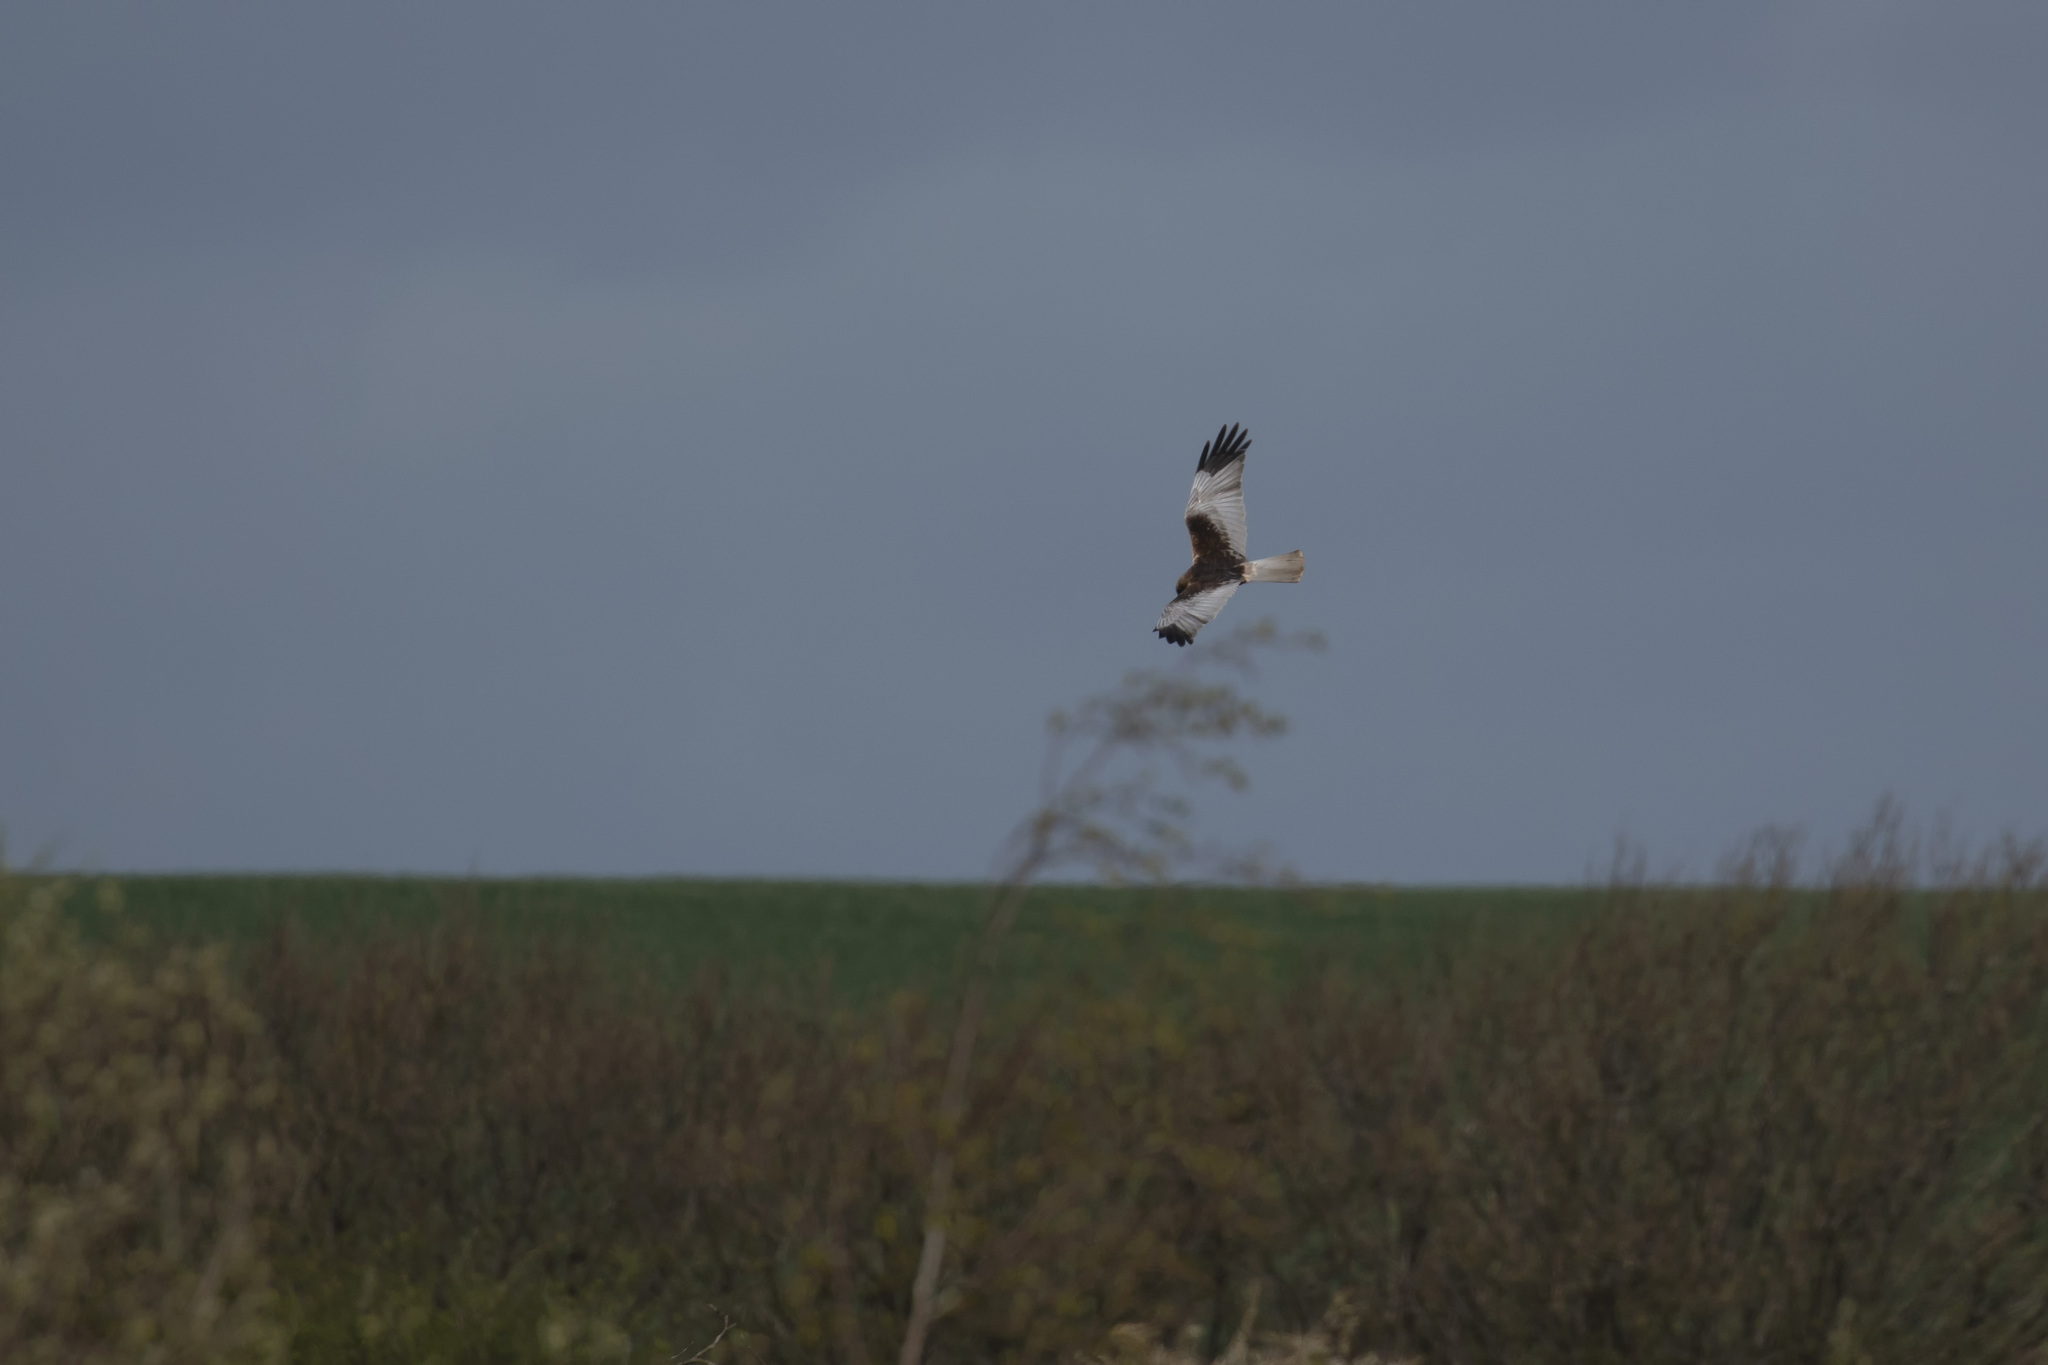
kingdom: Animalia
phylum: Chordata
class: Aves
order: Accipitriformes
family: Accipitridae
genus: Circus
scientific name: Circus aeruginosus
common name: Western marsh harrier
